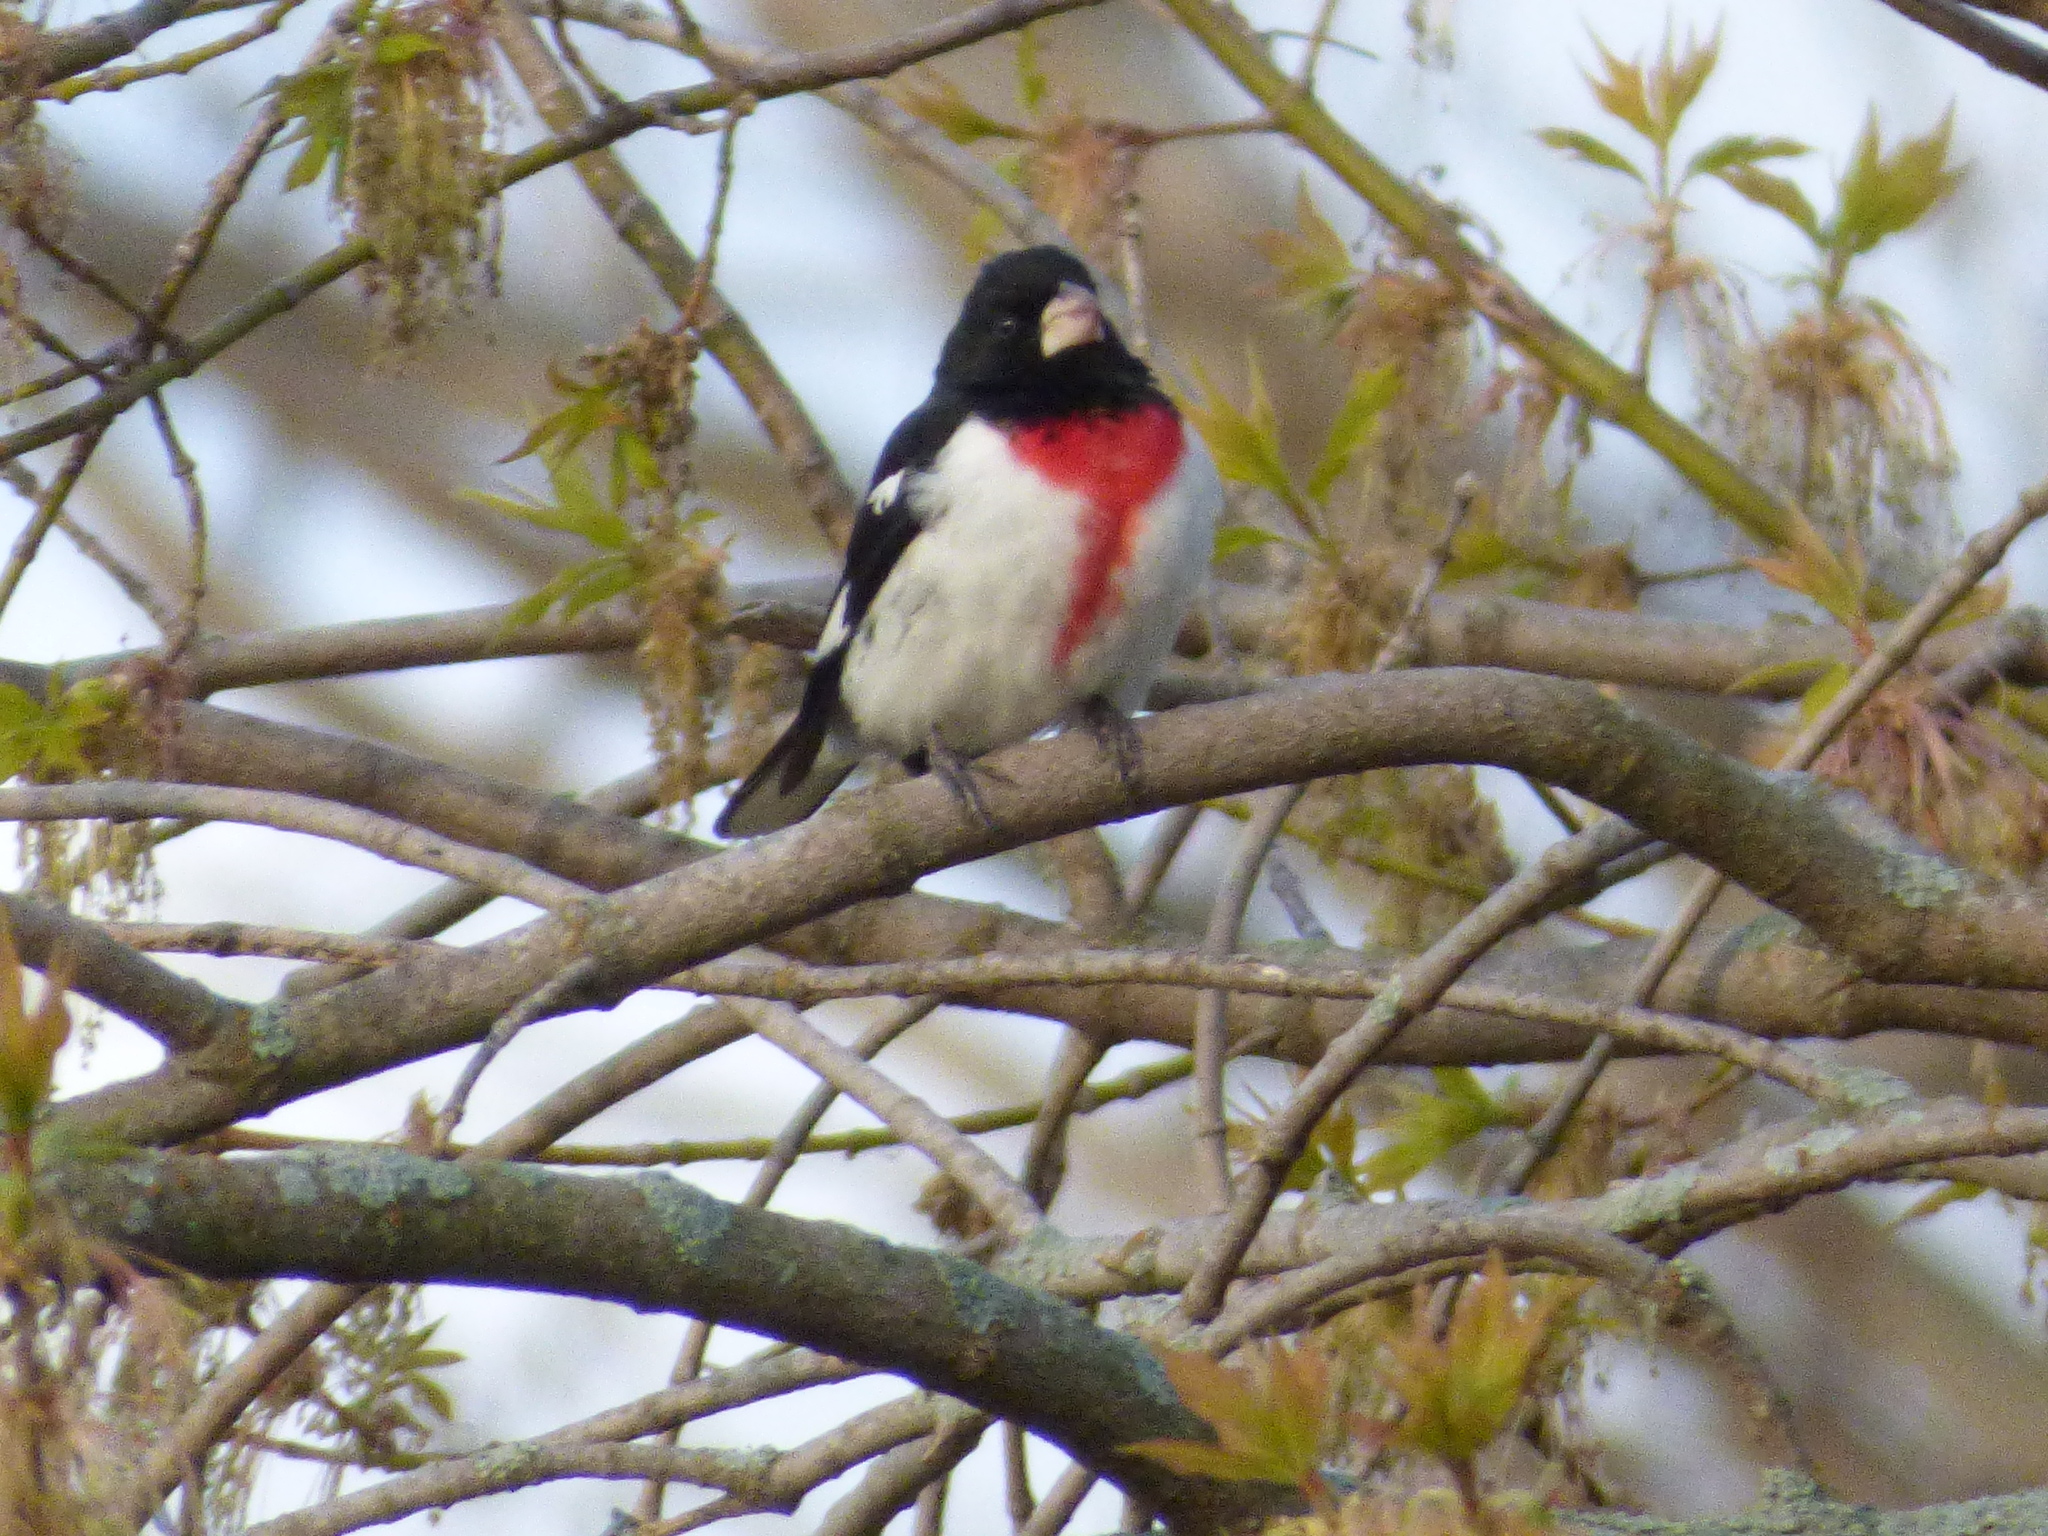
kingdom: Animalia
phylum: Chordata
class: Aves
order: Passeriformes
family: Cardinalidae
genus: Pheucticus
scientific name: Pheucticus ludovicianus
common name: Rose-breasted grosbeak
